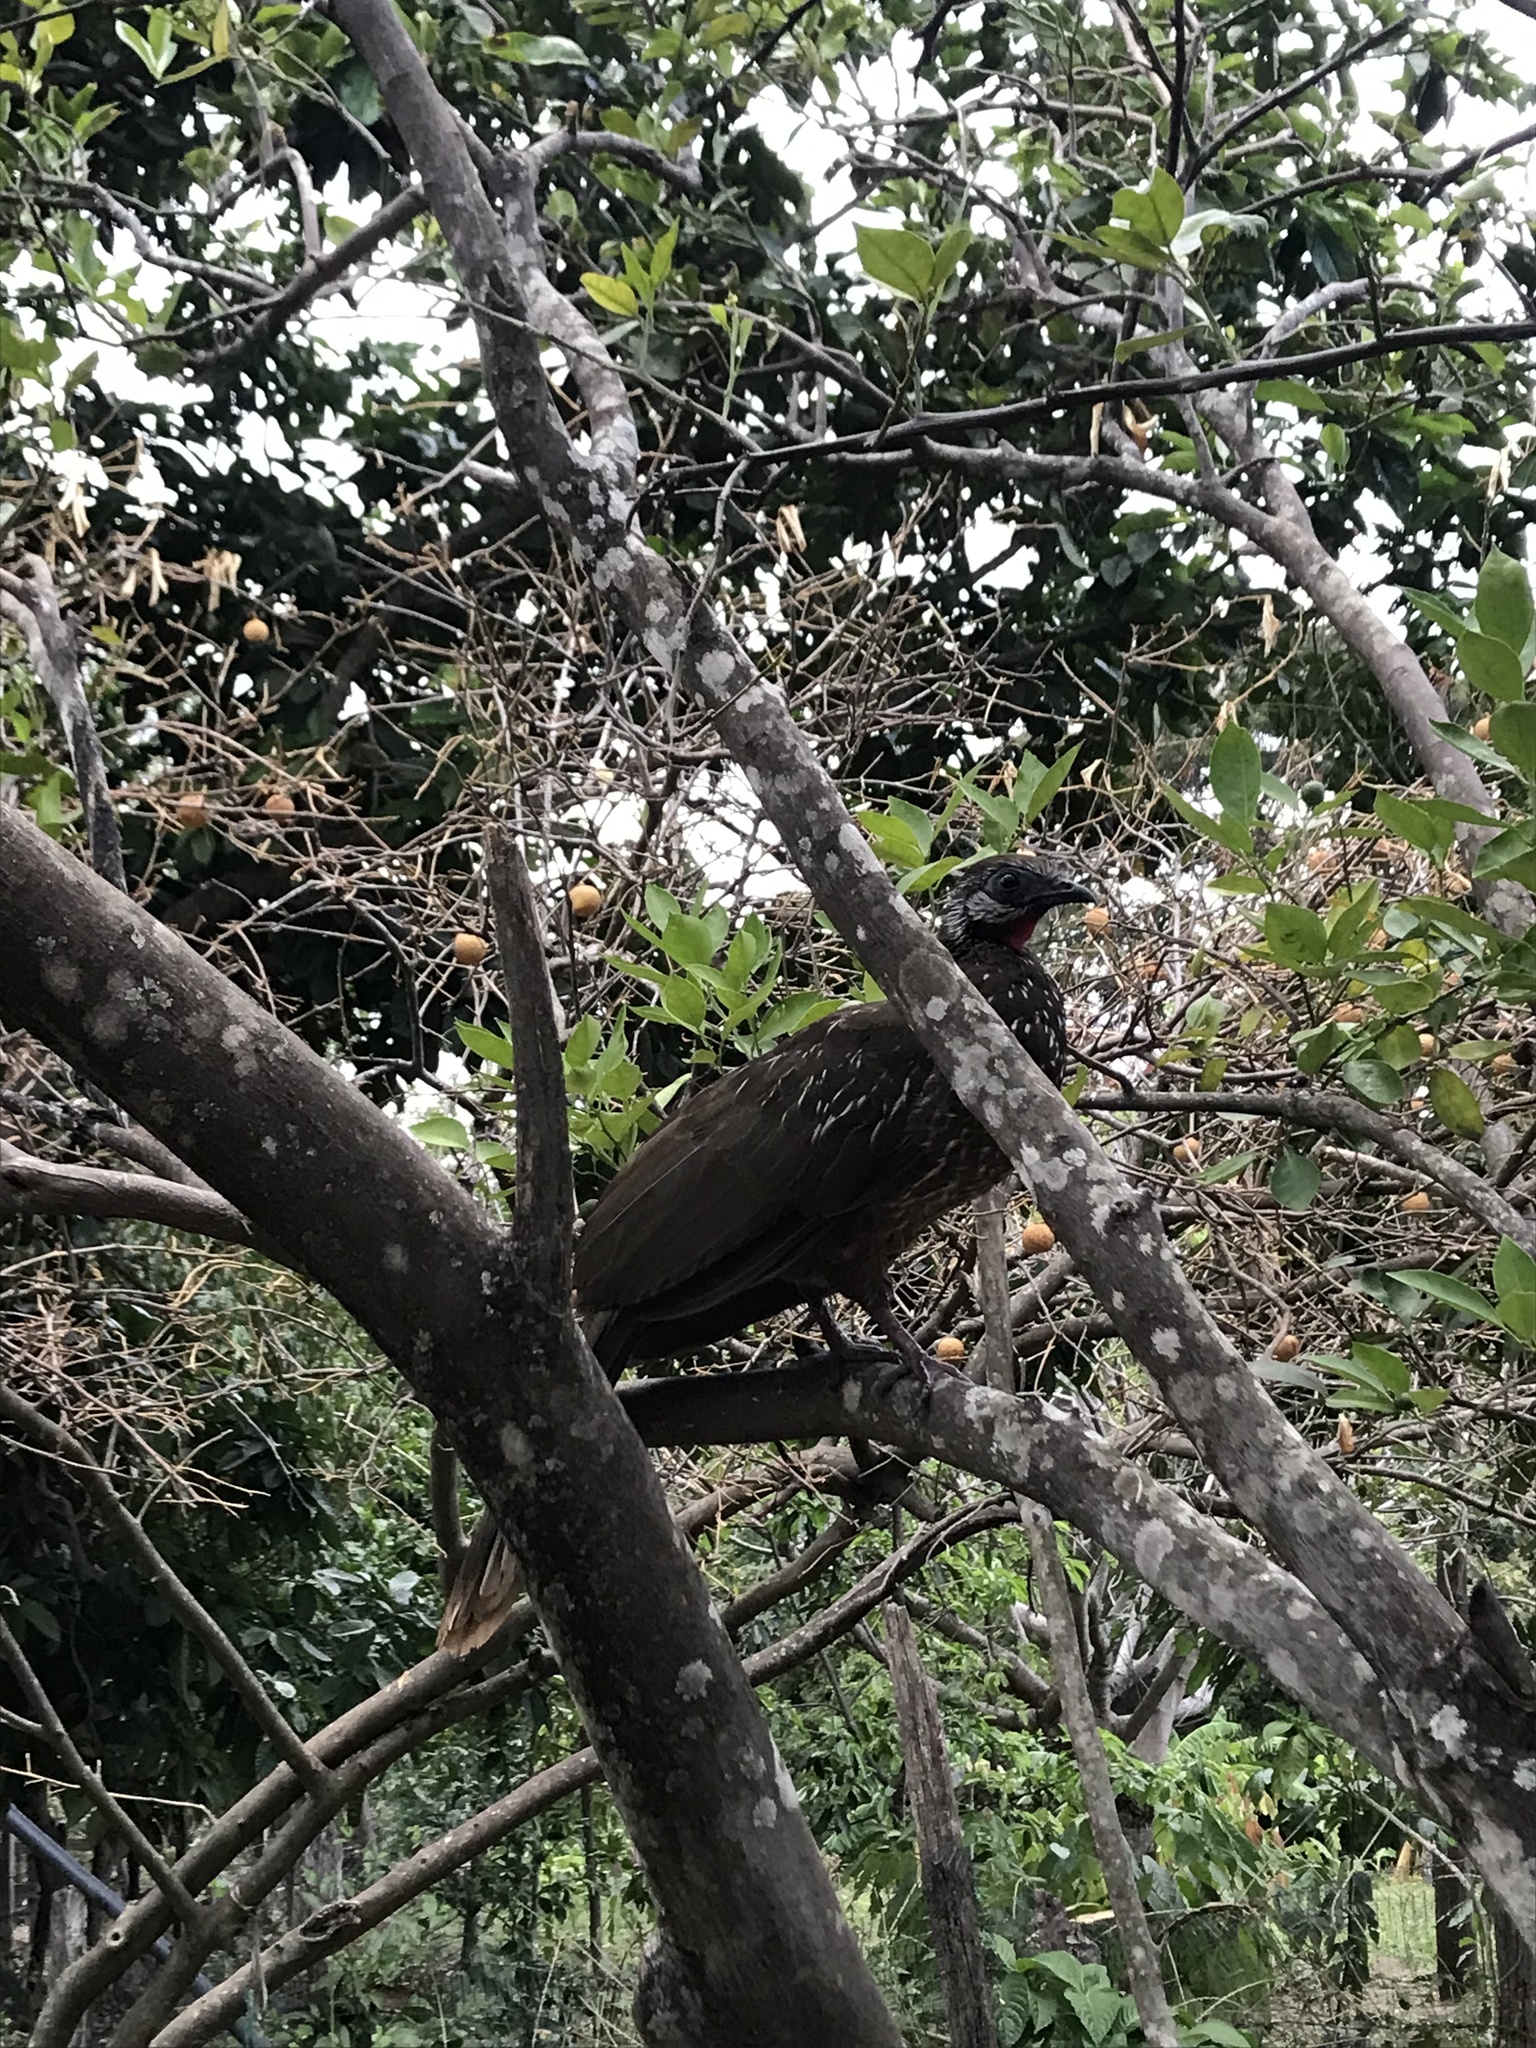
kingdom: Animalia
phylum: Chordata
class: Aves
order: Galliformes
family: Cracidae
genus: Penelope
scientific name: Penelope argyrotis
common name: Band-tailed guan
